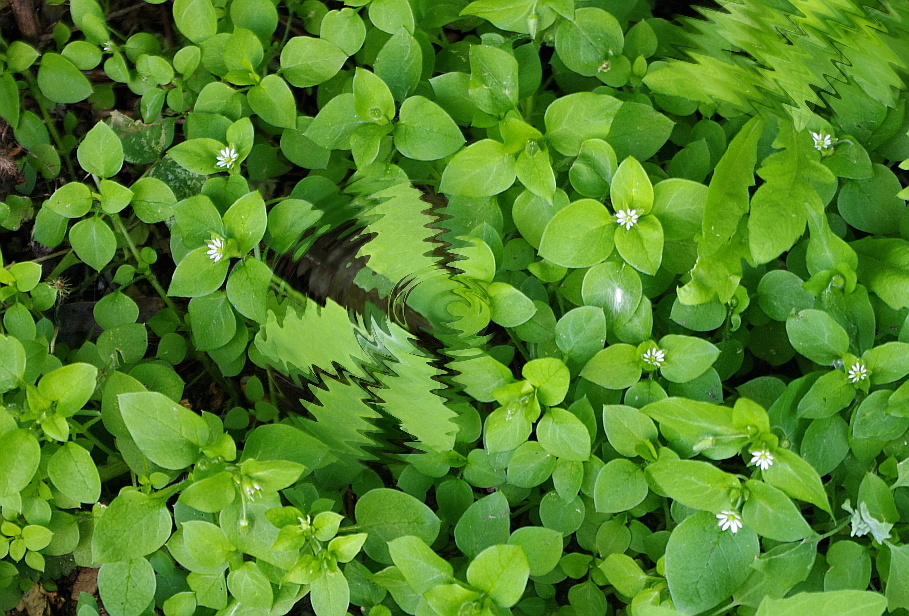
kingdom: Plantae
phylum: Tracheophyta
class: Magnoliopsida
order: Caryophyllales
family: Caryophyllaceae
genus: Stellaria
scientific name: Stellaria media
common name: Common chickweed
